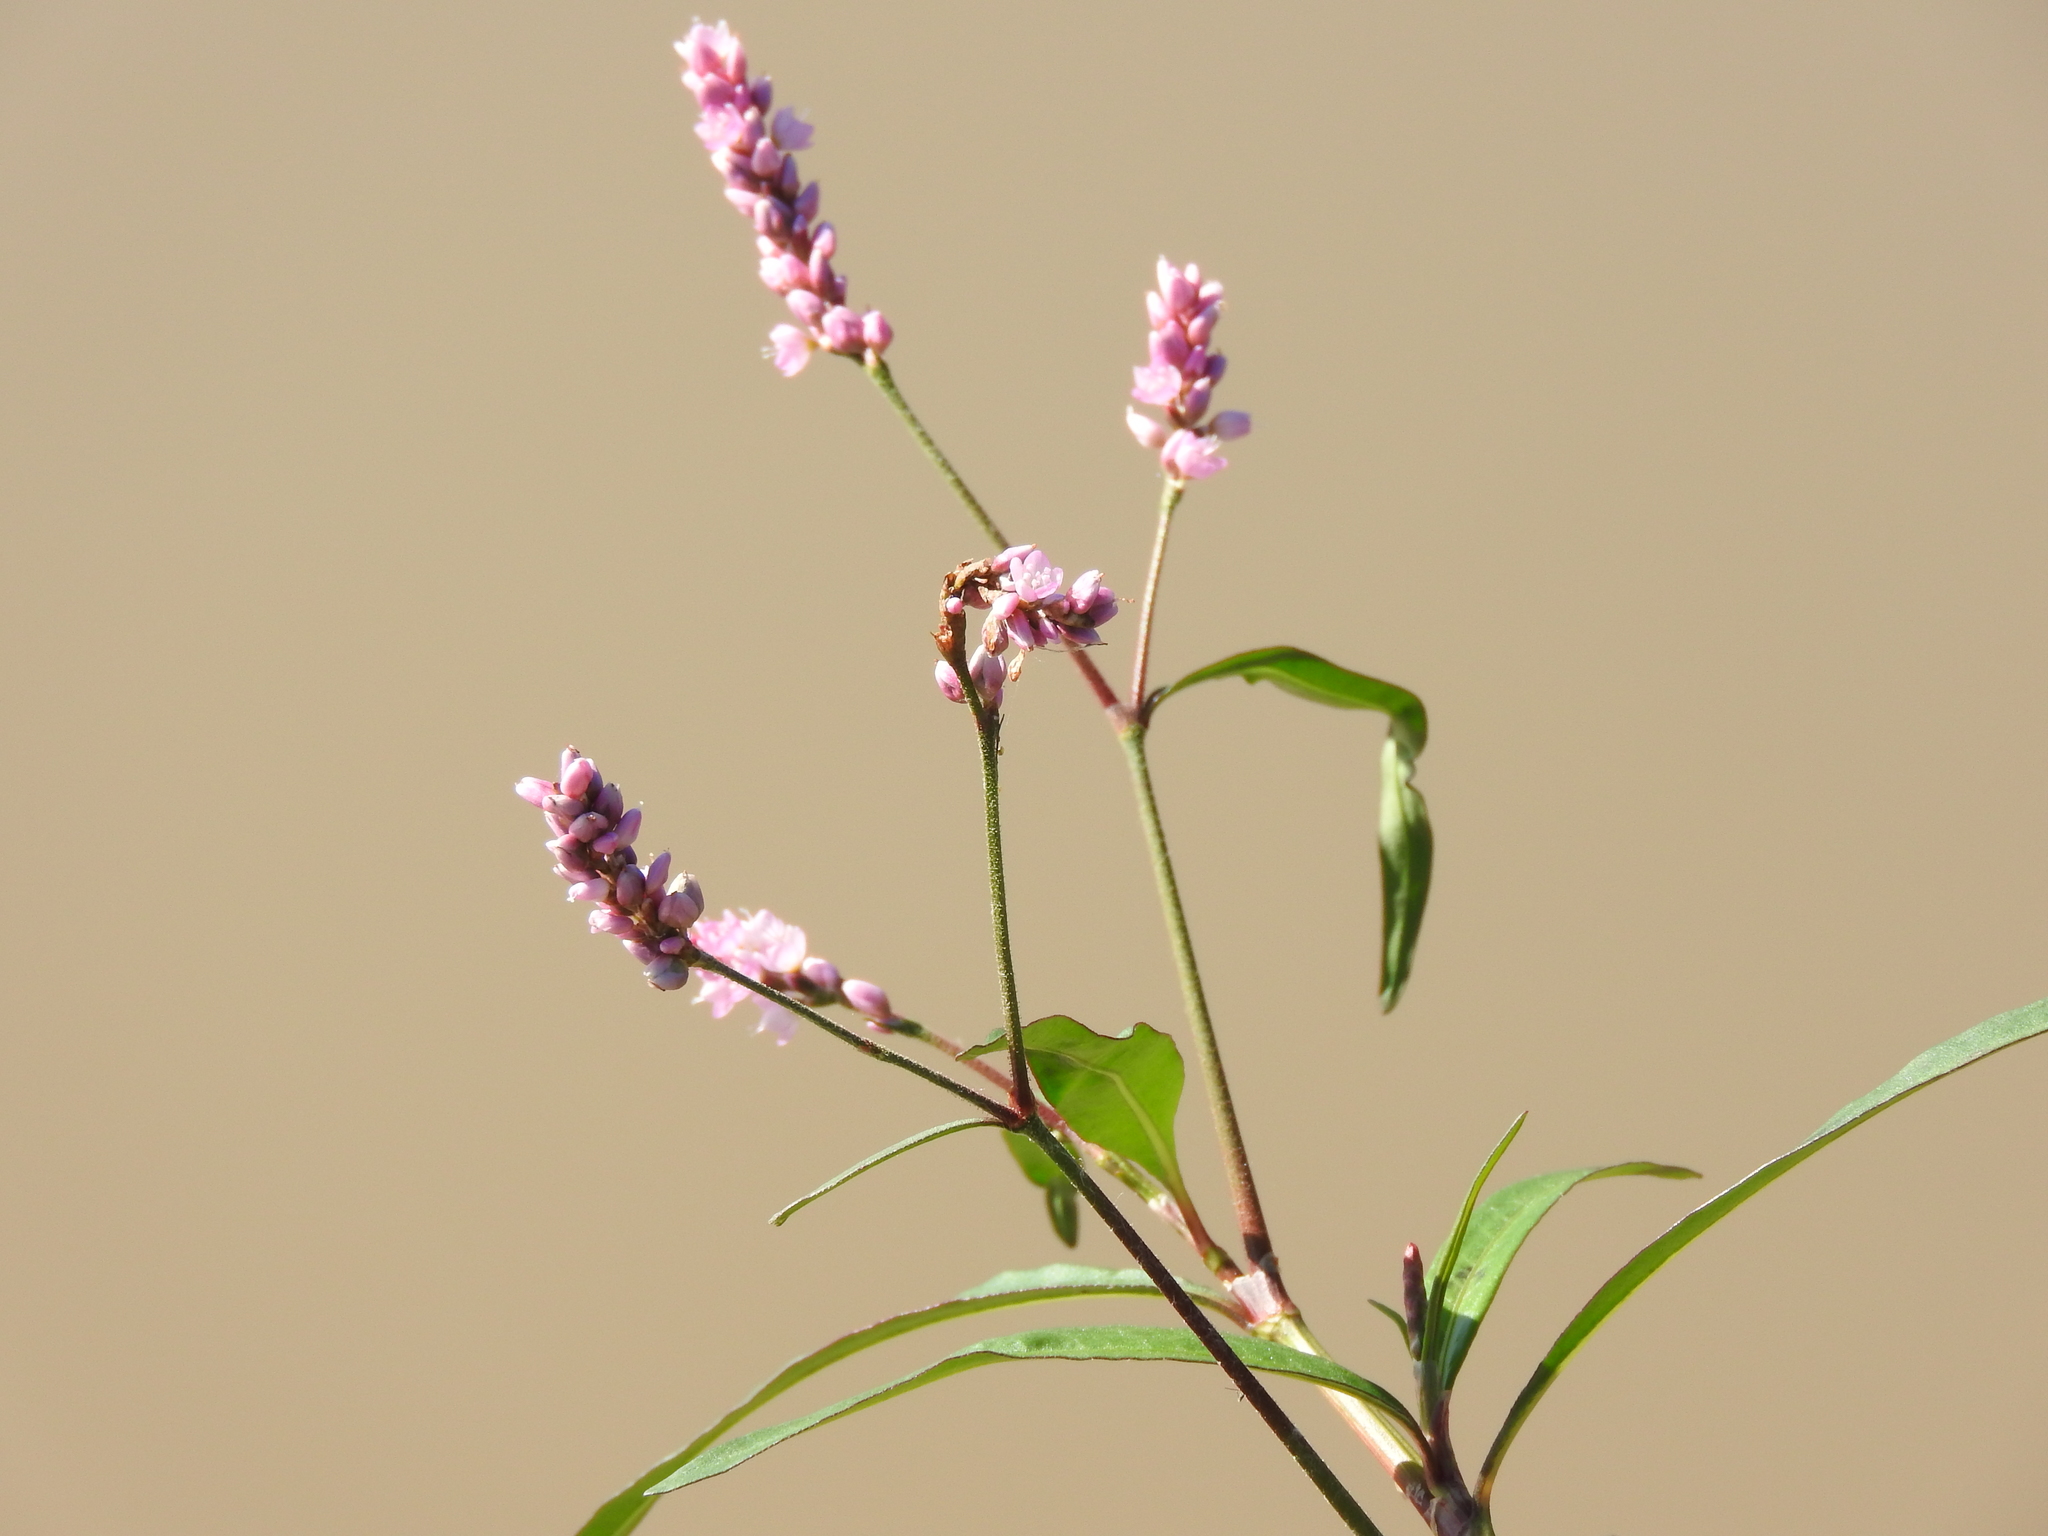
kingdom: Plantae
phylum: Tracheophyta
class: Magnoliopsida
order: Caryophyllales
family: Polygonaceae
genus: Persicaria
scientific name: Persicaria pensylvanica
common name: Pinkweed
